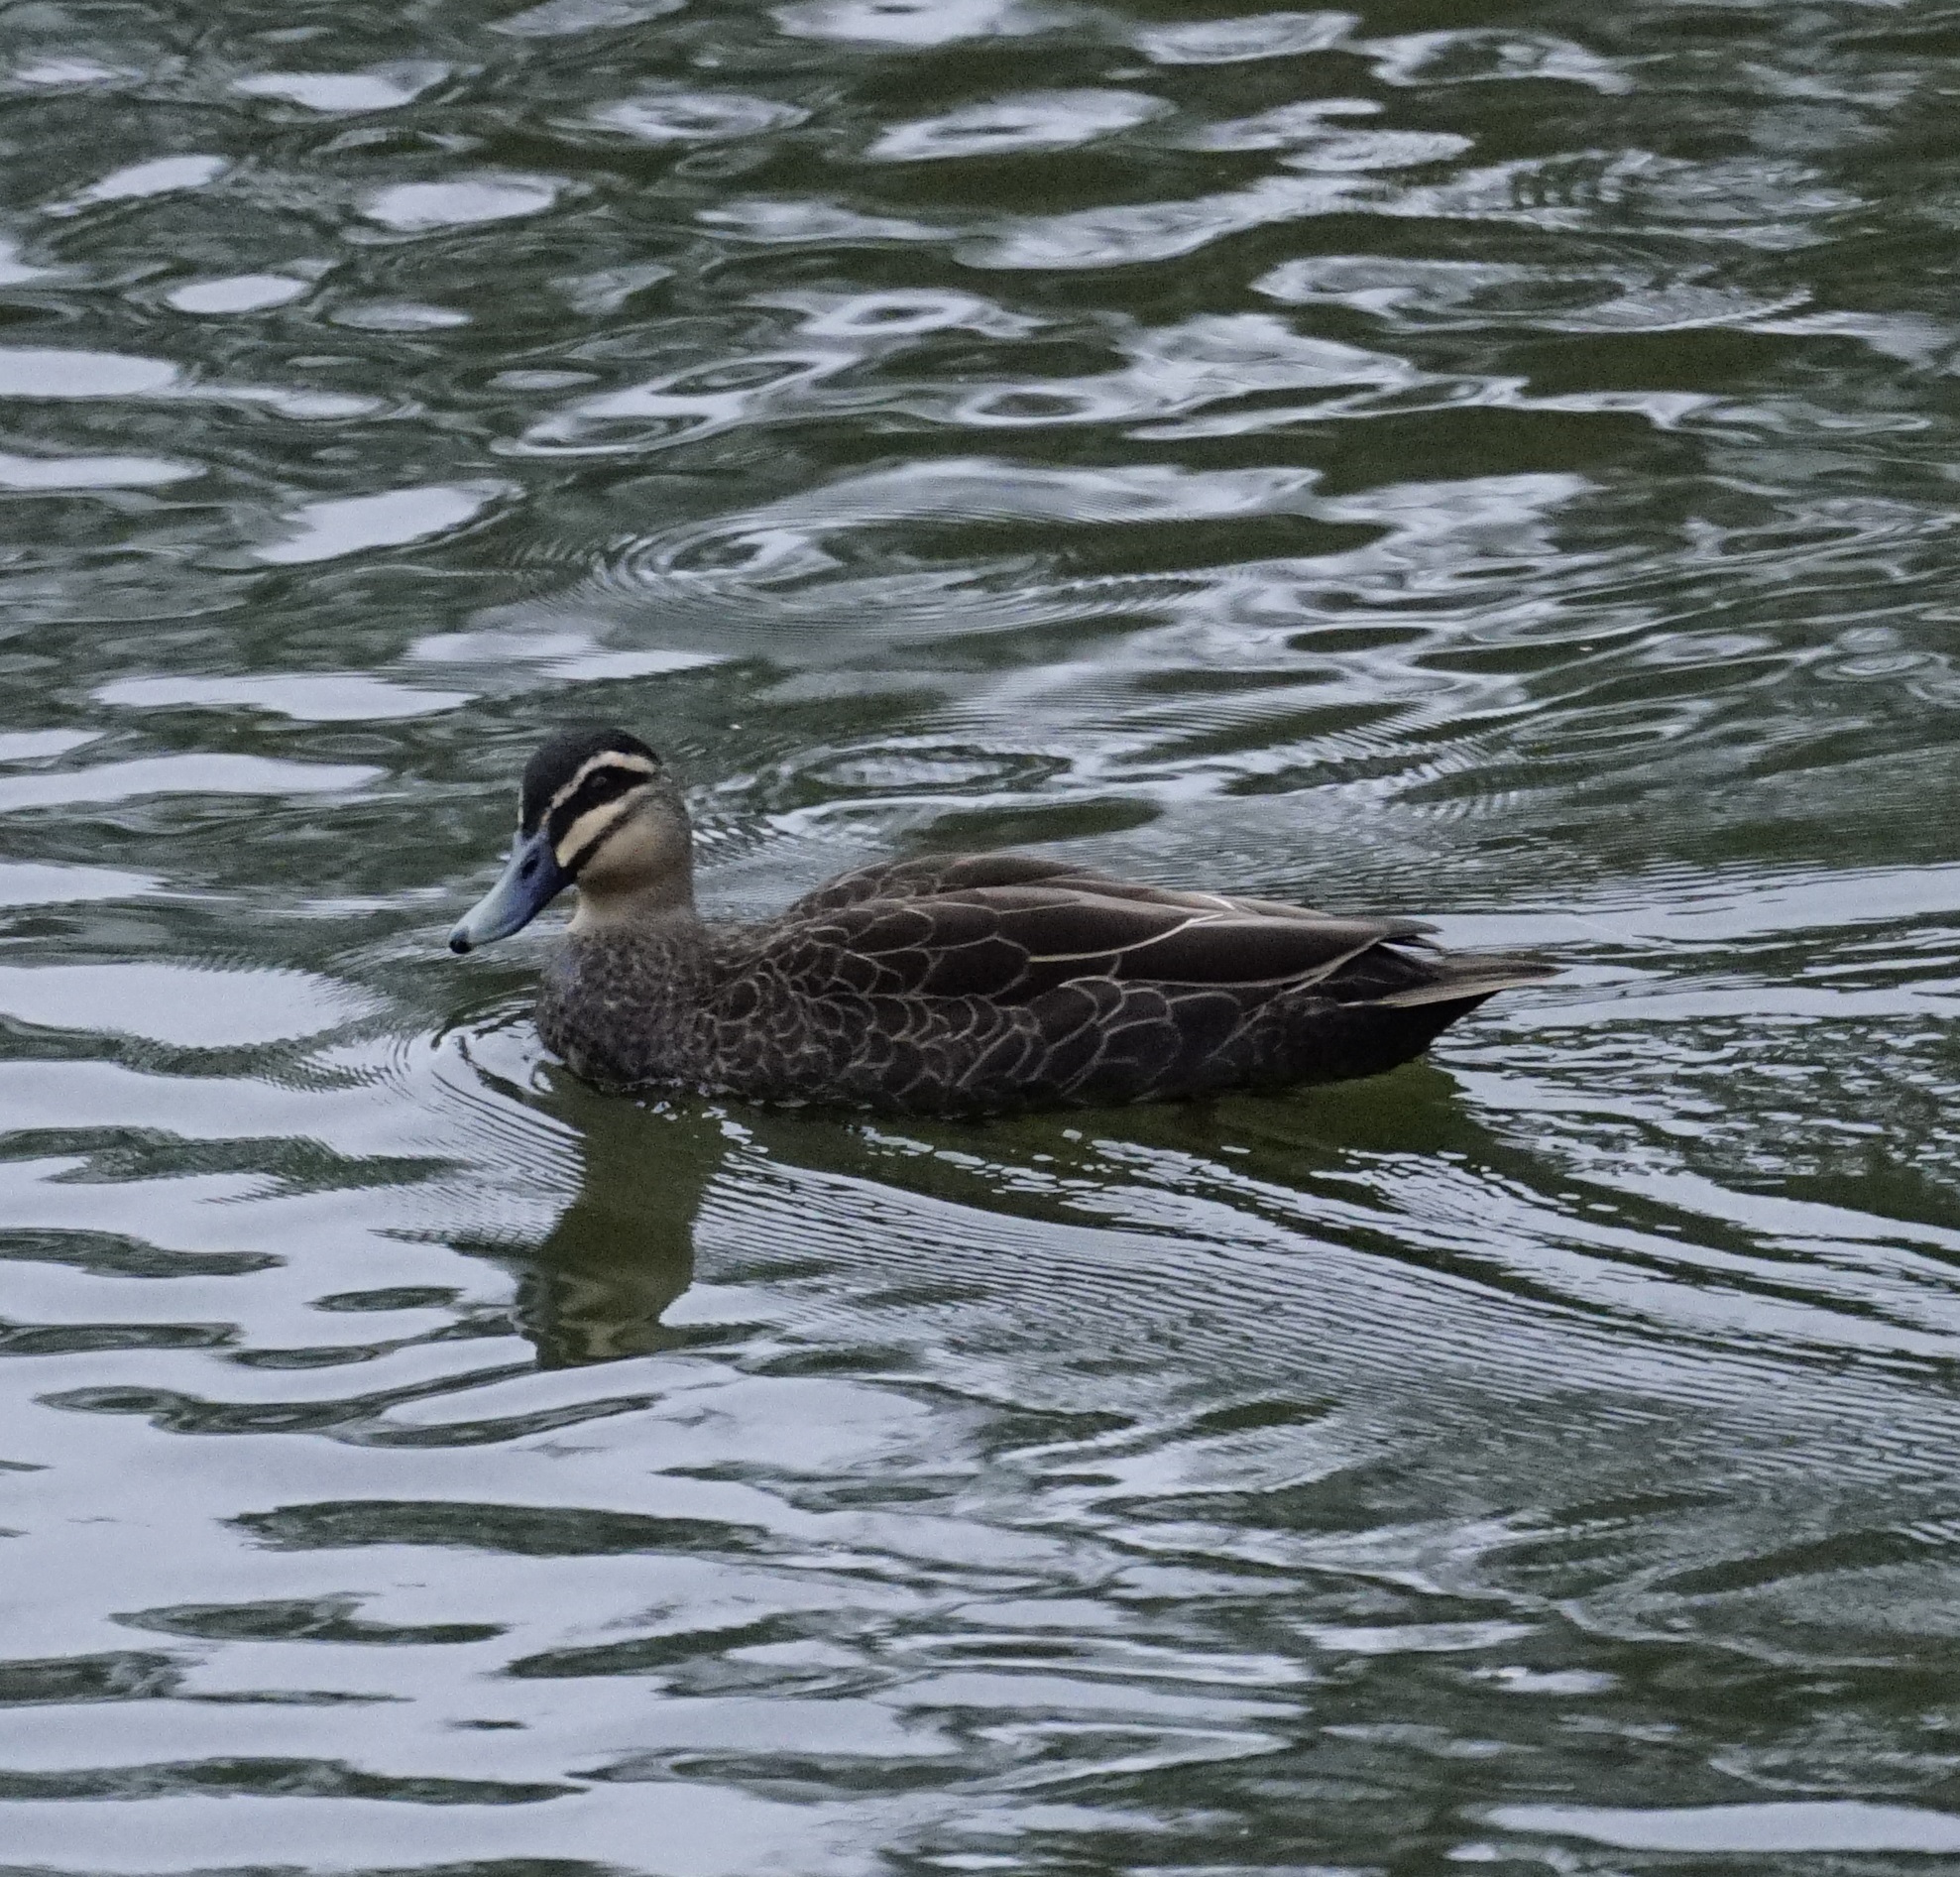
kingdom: Animalia
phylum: Chordata
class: Aves
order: Anseriformes
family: Anatidae
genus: Anas
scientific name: Anas superciliosa
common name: Pacific black duck
